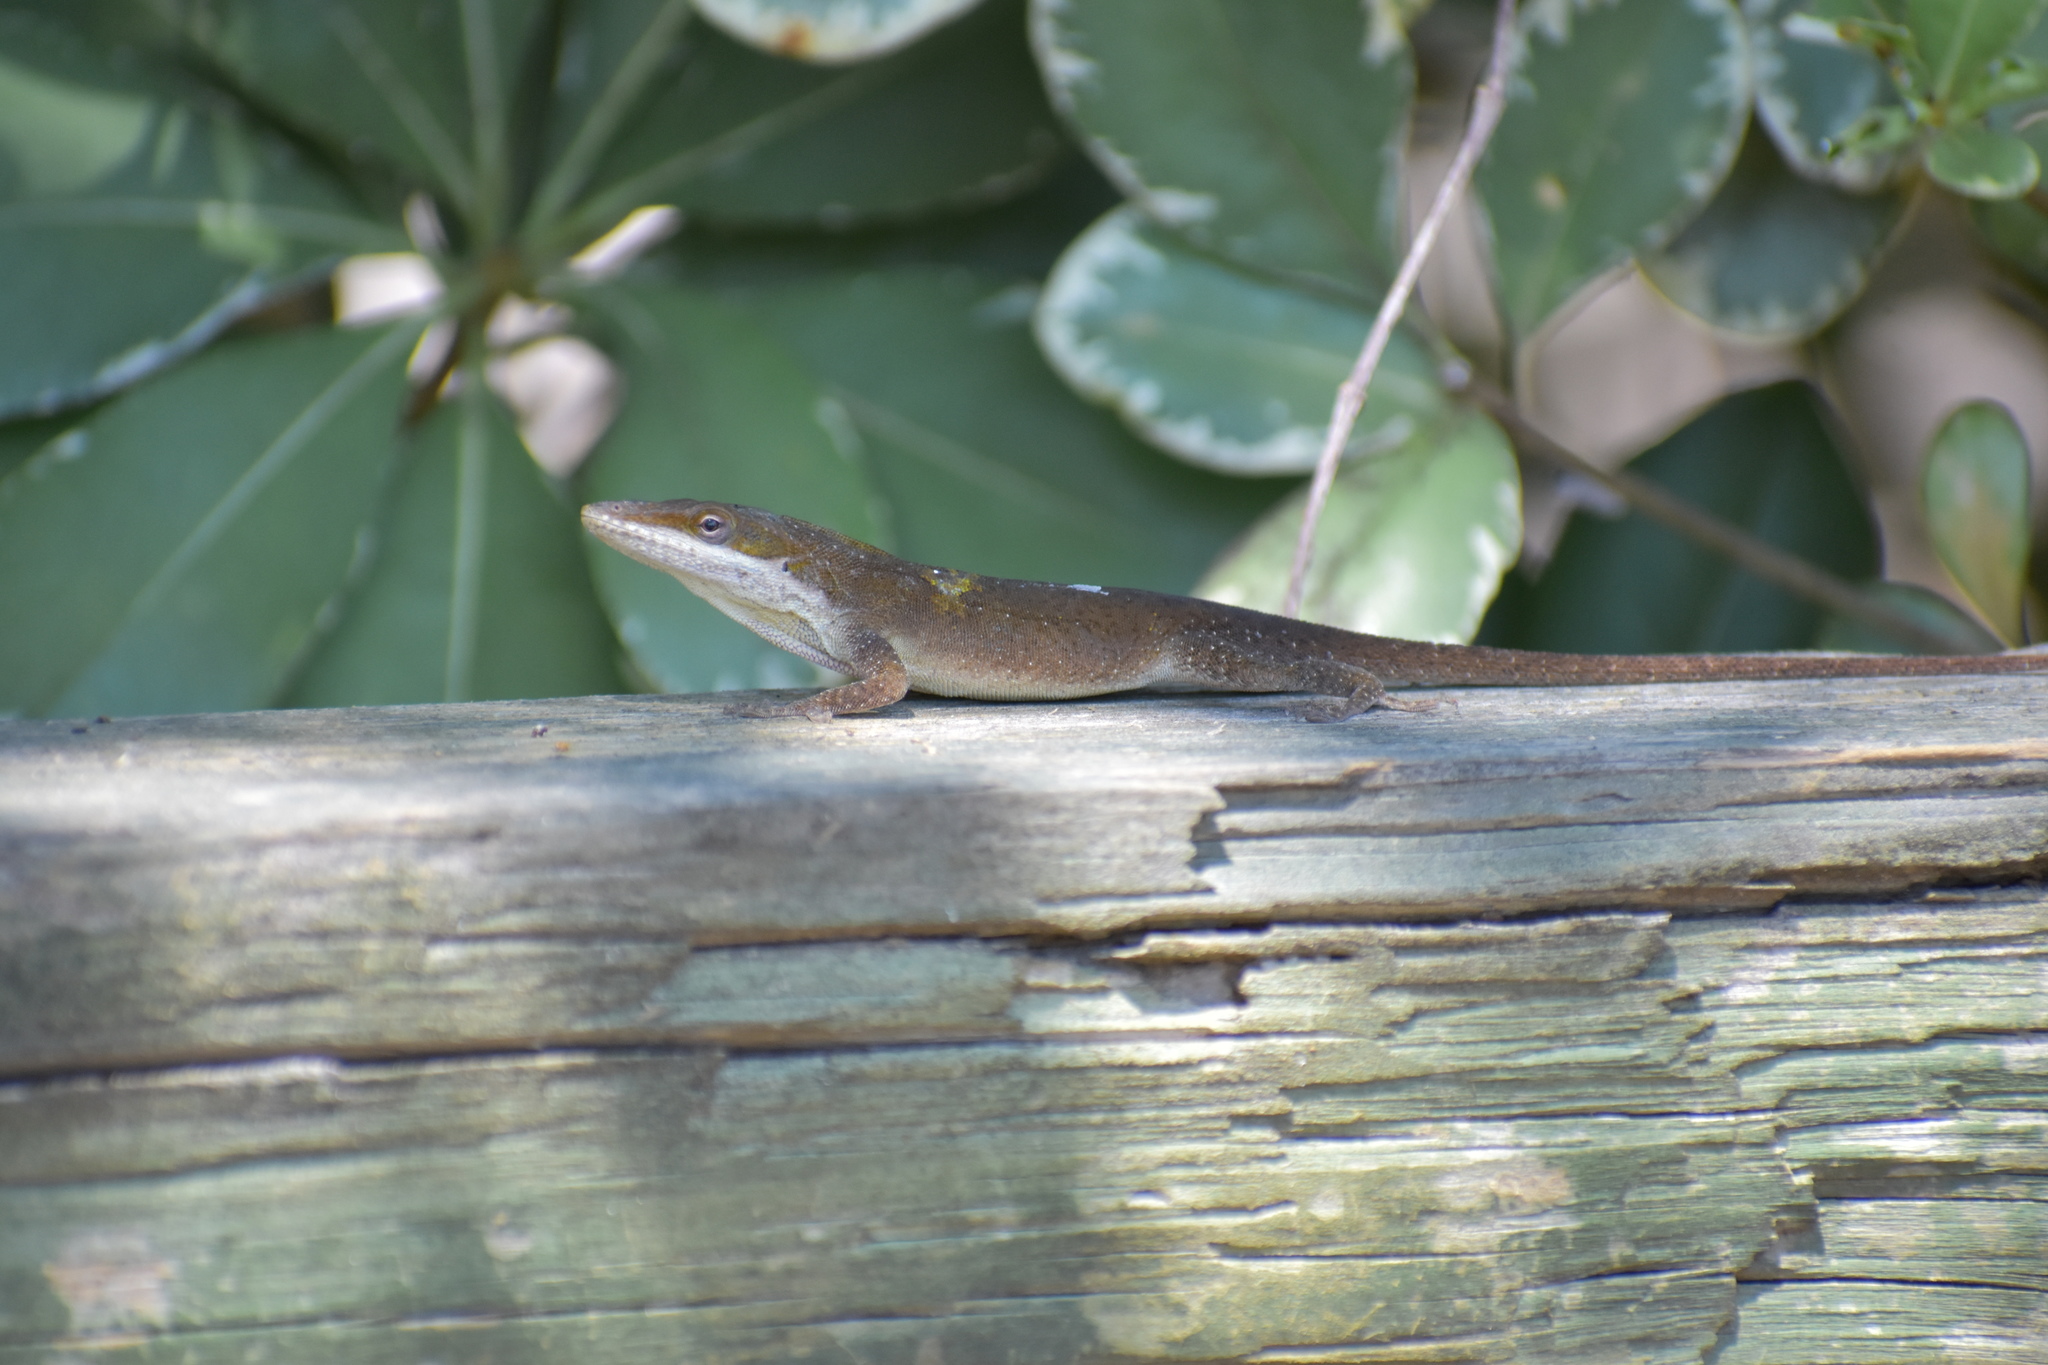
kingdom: Animalia
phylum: Chordata
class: Squamata
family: Dactyloidae
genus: Anolis
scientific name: Anolis carolinensis
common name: Green anole
